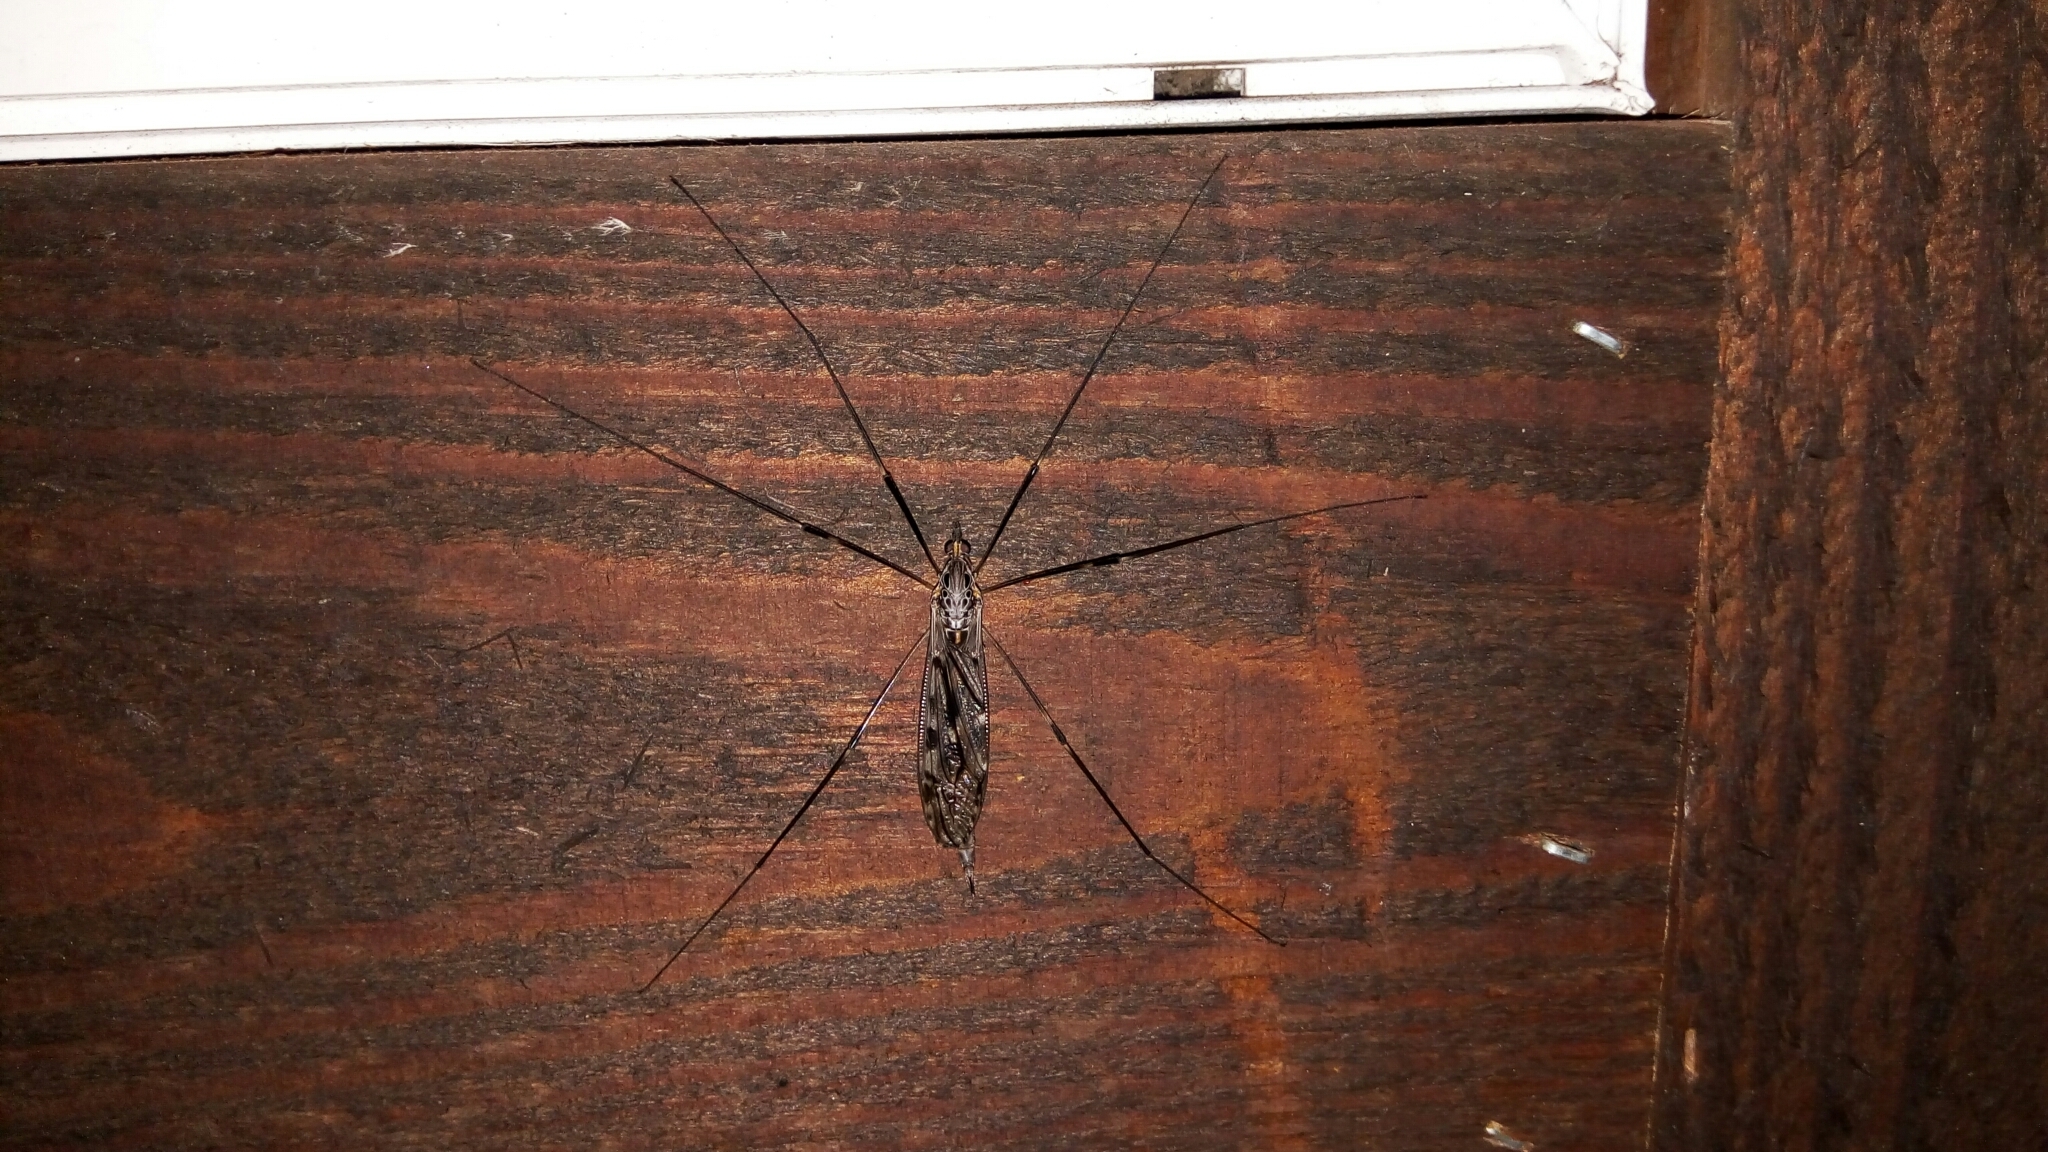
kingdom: Animalia
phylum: Arthropoda
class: Insecta
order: Diptera
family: Tipulidae
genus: Tipula
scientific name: Tipula abdominalis
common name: Giant crane fly
